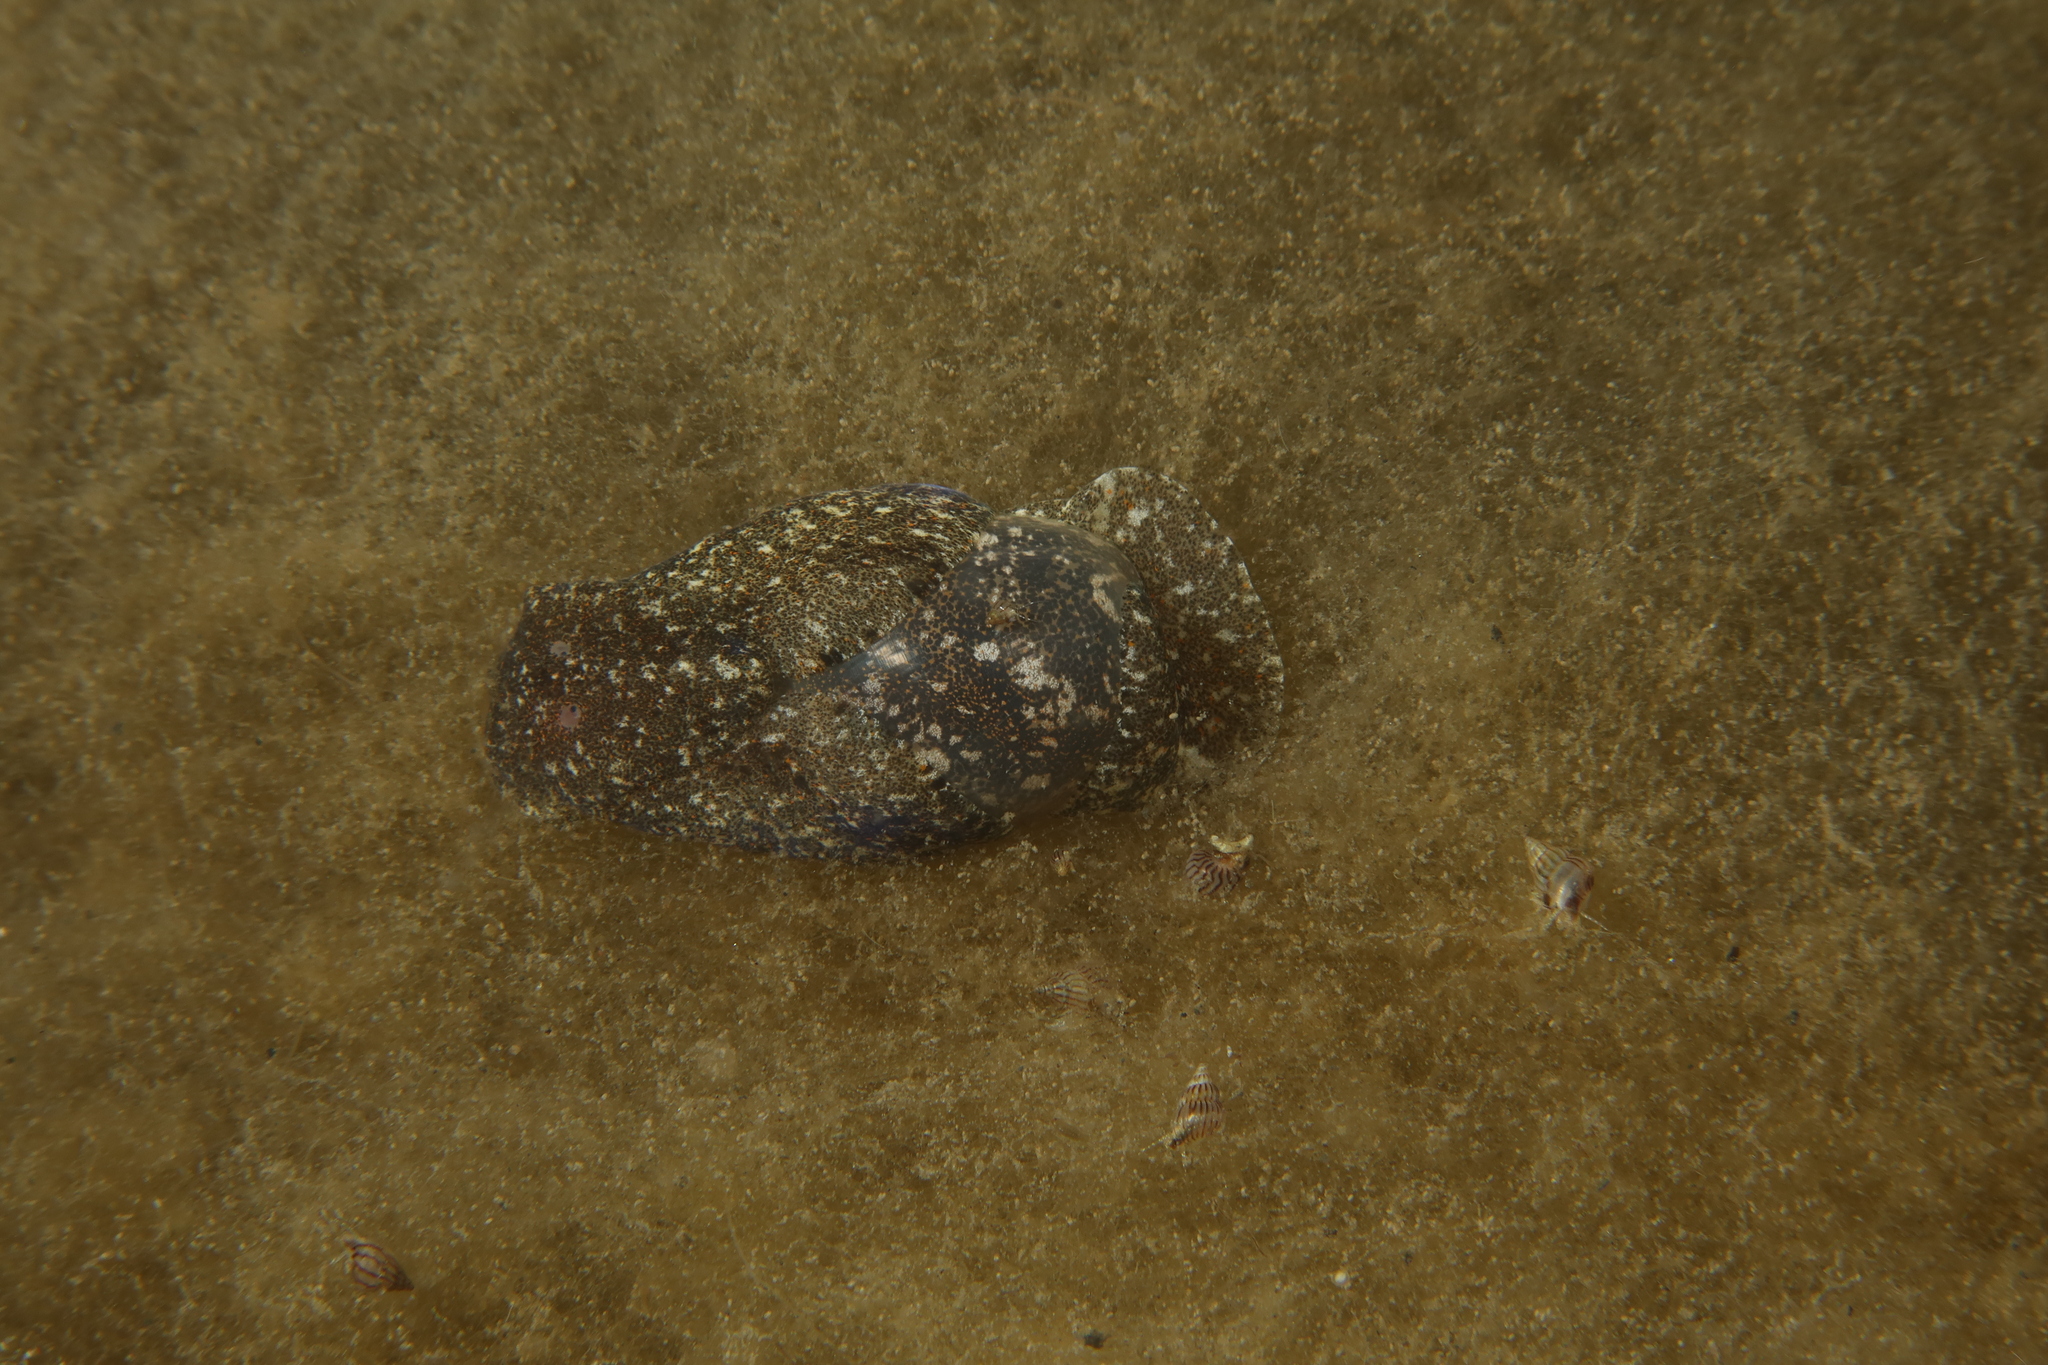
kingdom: Animalia
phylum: Mollusca
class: Gastropoda
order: Cephalaspidea
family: Haminoeidae
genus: Haminoea
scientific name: Haminoea navicula
